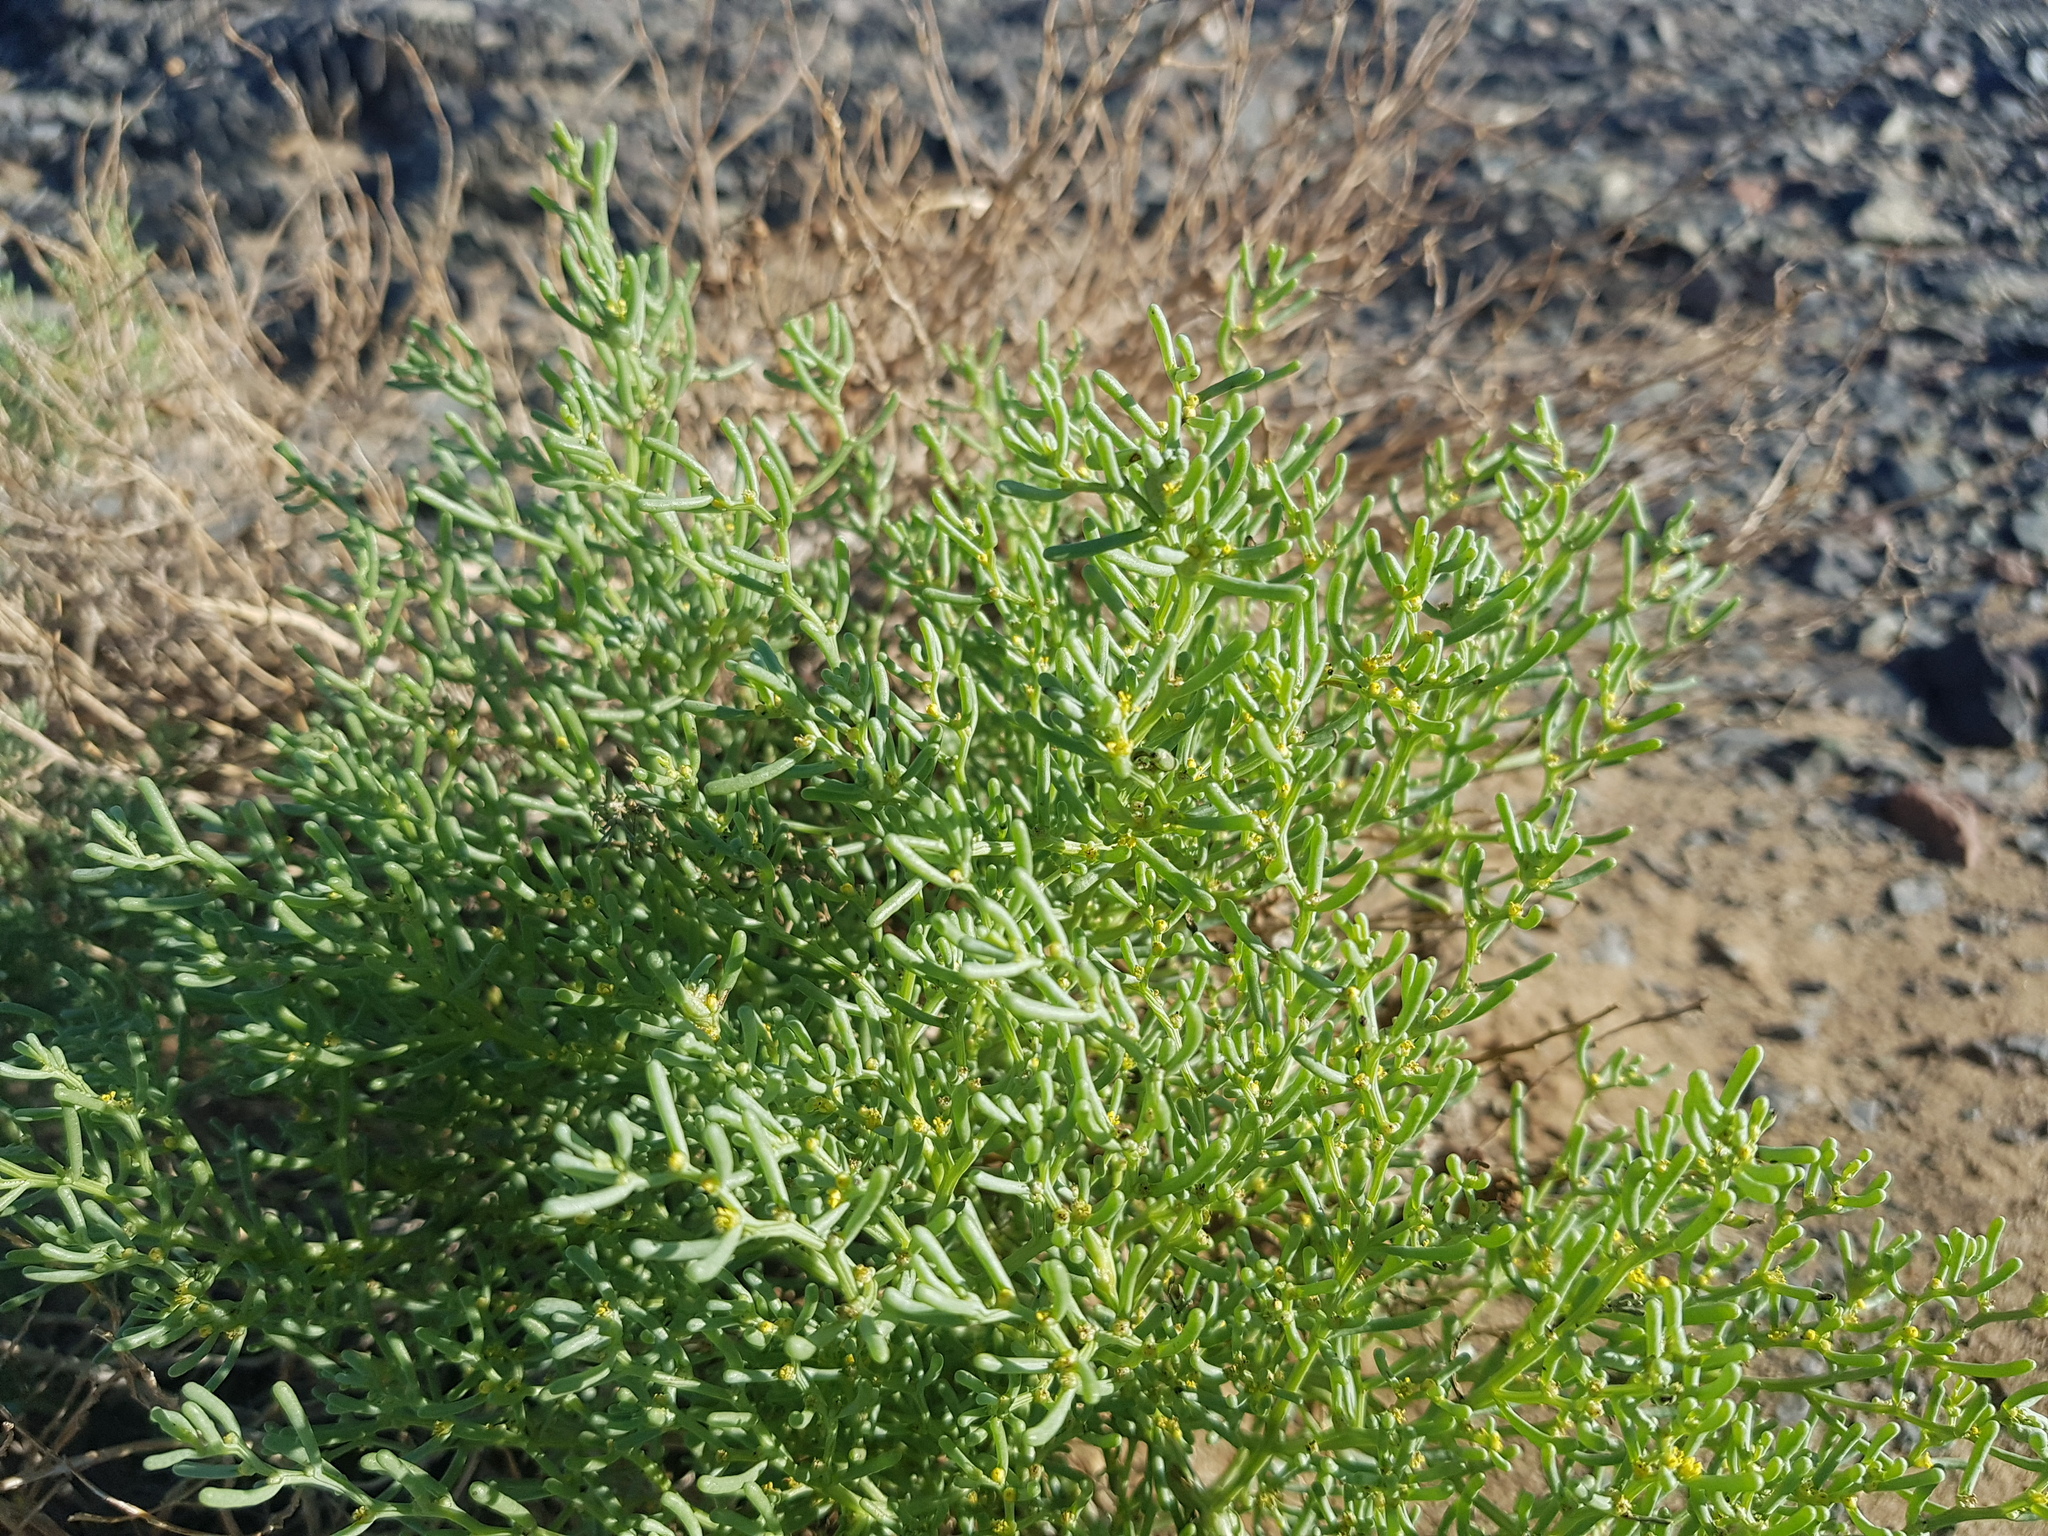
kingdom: Plantae
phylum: Tracheophyta
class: Magnoliopsida
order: Caryophyllales
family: Amaranthaceae
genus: Haloxylon
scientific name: Haloxylon regelii
